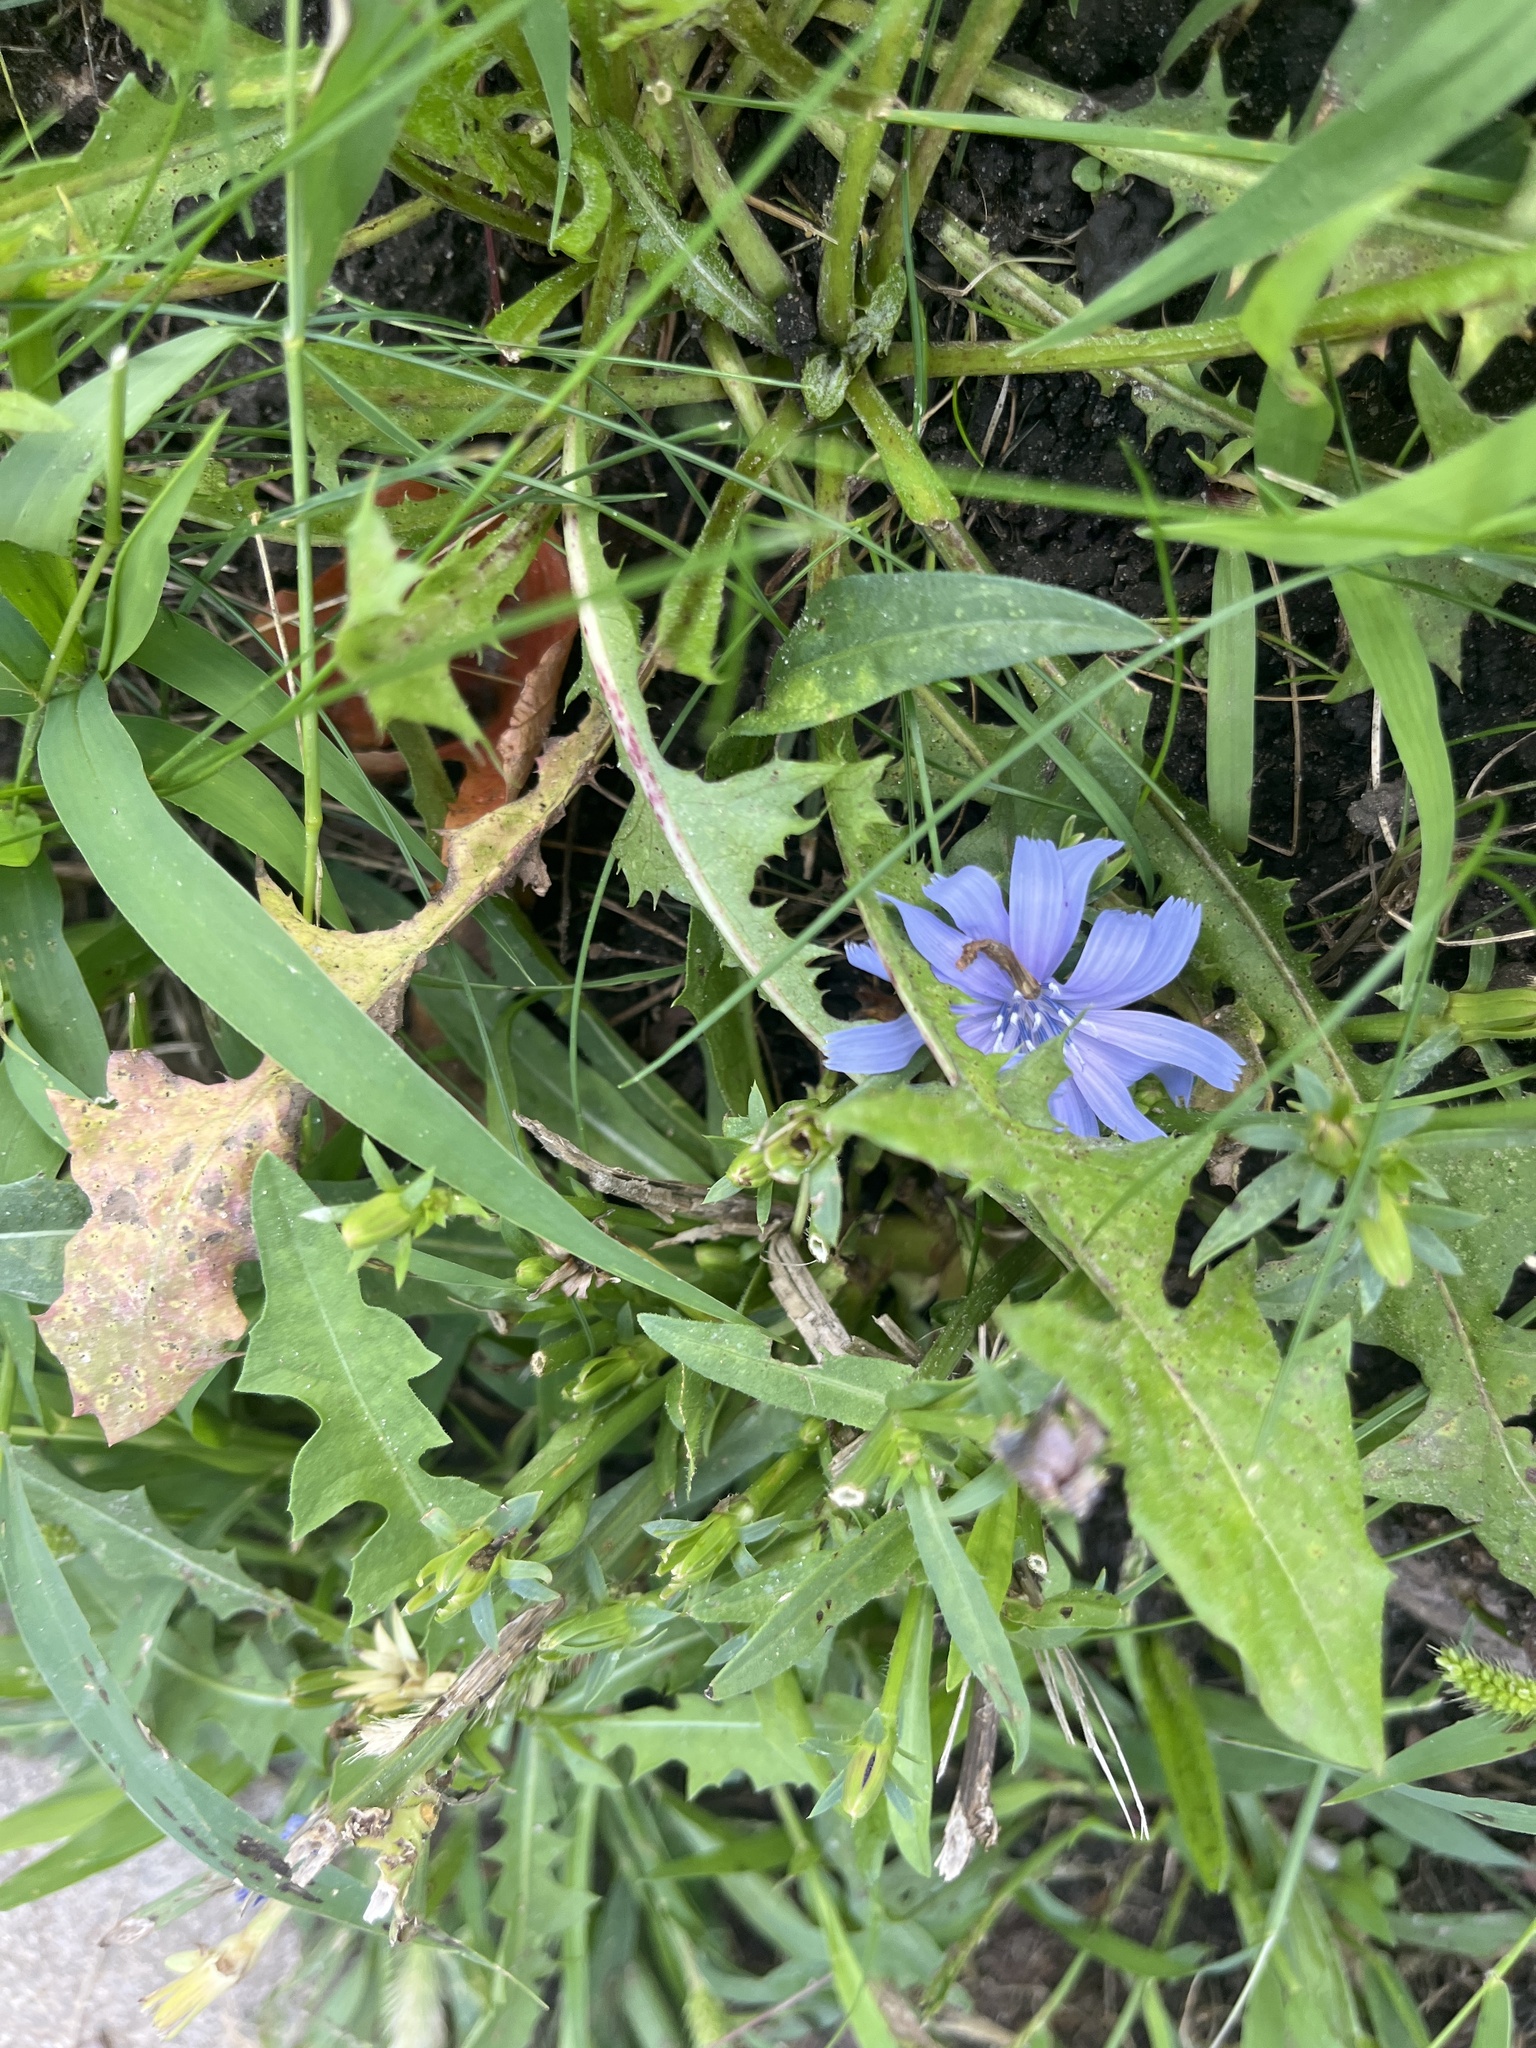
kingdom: Plantae
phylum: Tracheophyta
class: Magnoliopsida
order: Asterales
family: Asteraceae
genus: Cichorium
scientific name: Cichorium intybus
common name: Chicory
